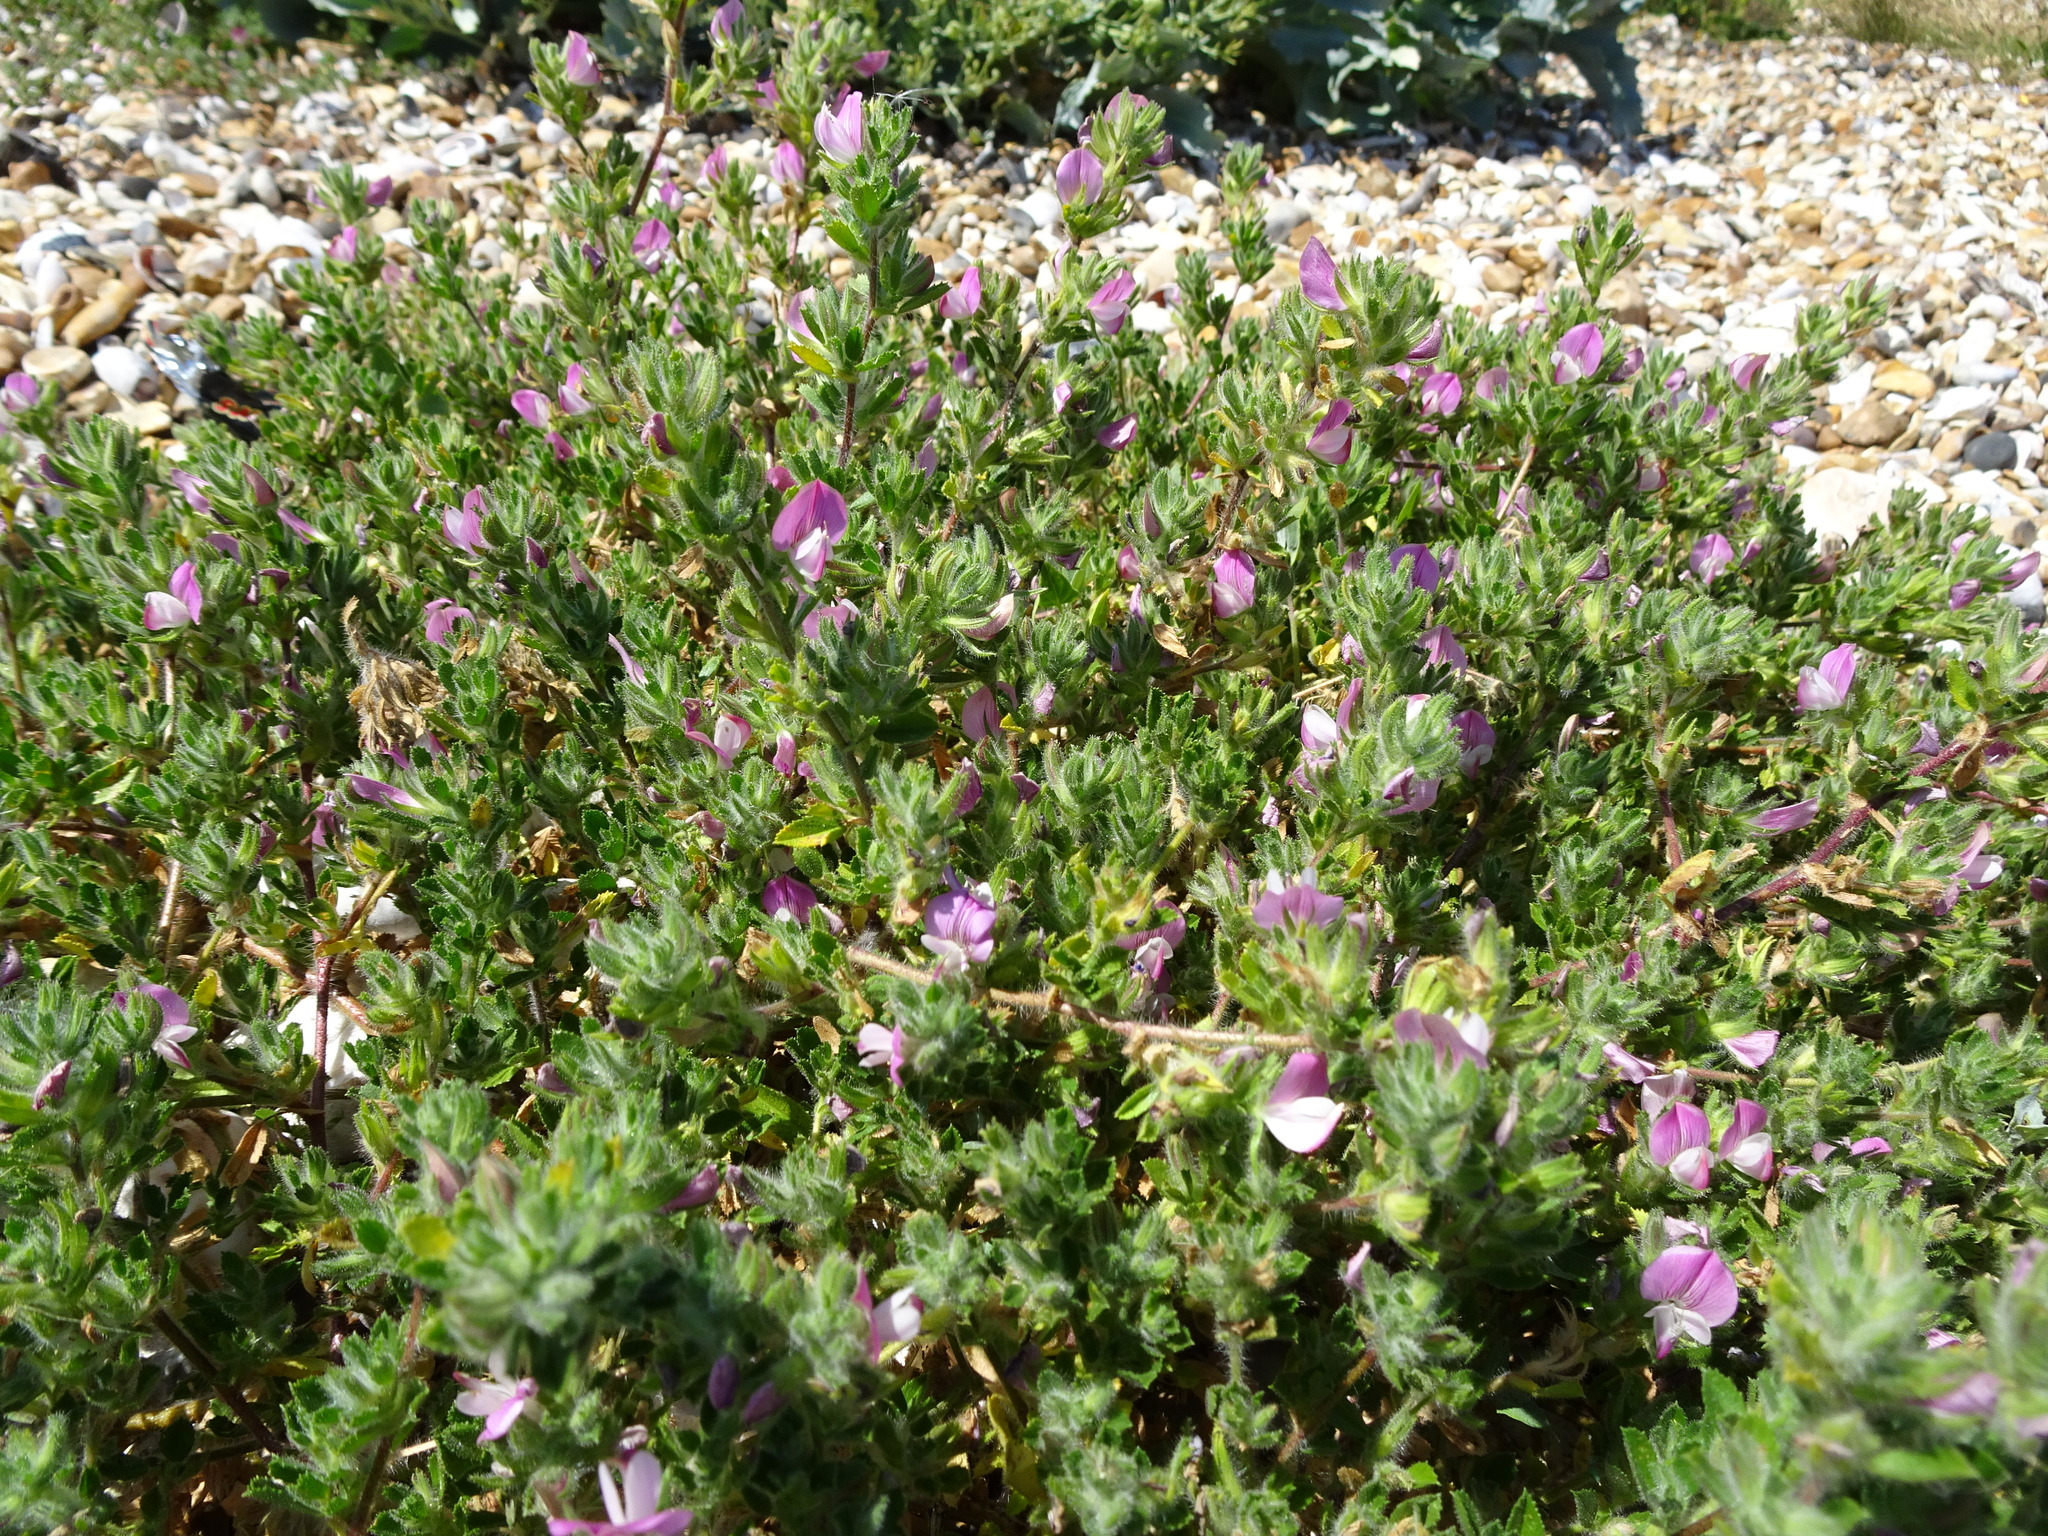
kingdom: Plantae
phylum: Tracheophyta
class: Magnoliopsida
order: Fabales
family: Fabaceae
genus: Ononis
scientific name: Ononis spinosa
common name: Spiny restharrow
